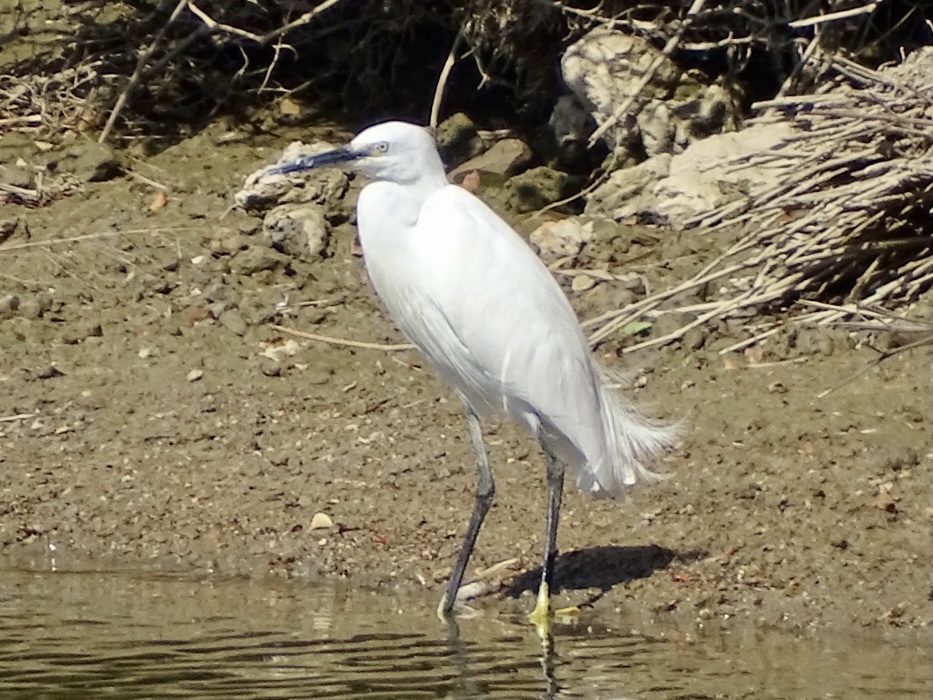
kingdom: Animalia
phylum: Chordata
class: Aves
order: Pelecaniformes
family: Ardeidae
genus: Egretta
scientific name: Egretta garzetta
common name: Little egret
